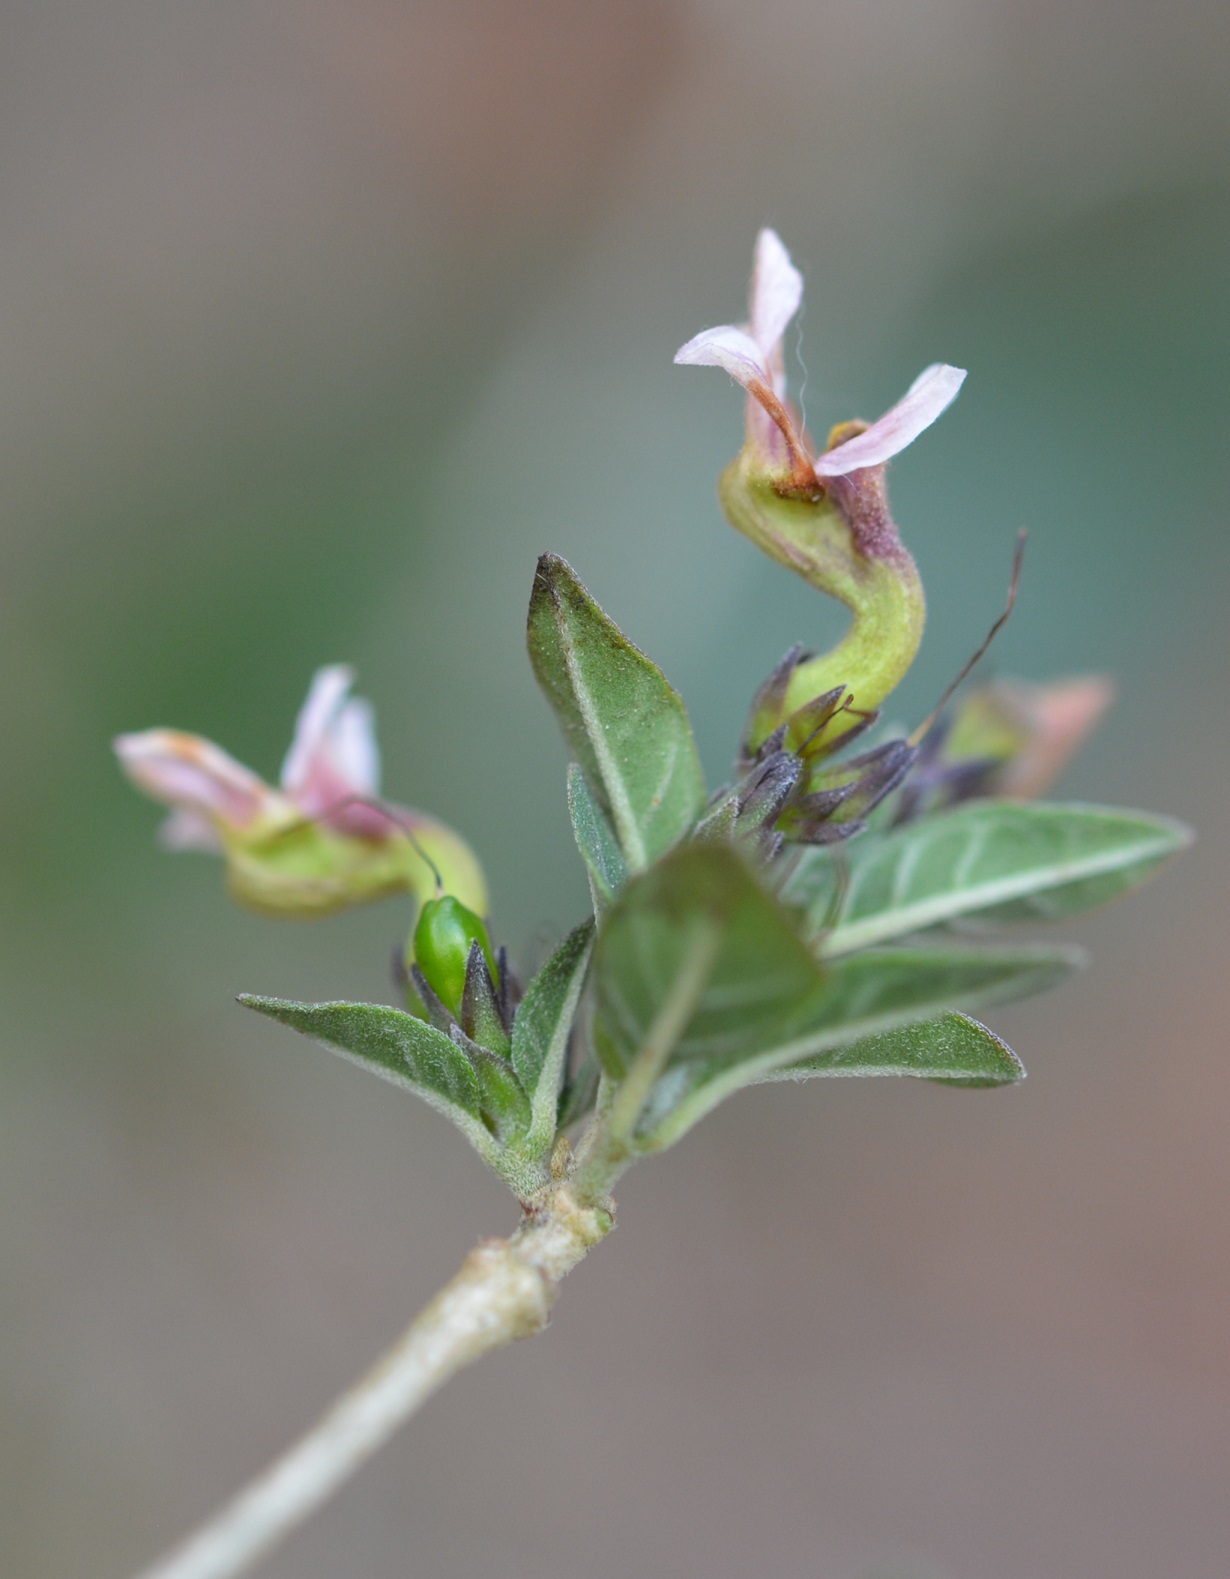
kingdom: Plantae
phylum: Tracheophyta
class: Magnoliopsida
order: Lamiales
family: Acanthaceae
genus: Holographis
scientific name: Holographis parayana
